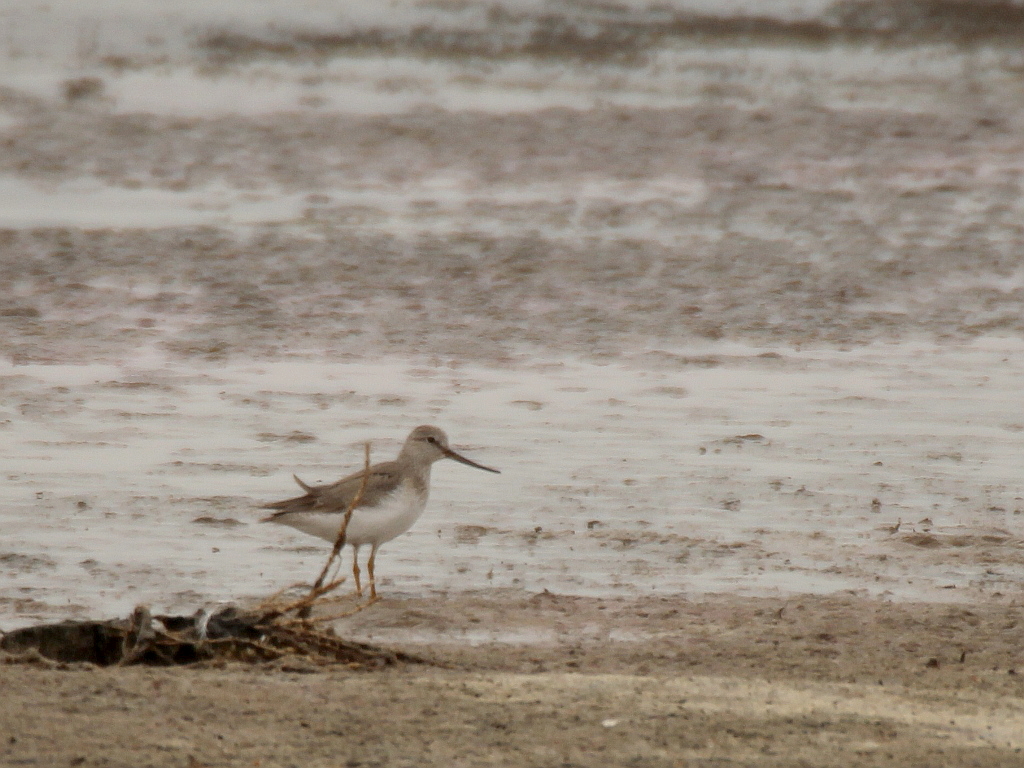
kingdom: Animalia
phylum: Chordata
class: Aves
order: Charadriiformes
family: Scolopacidae
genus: Xenus
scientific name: Xenus cinereus
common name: Terek sandpiper
